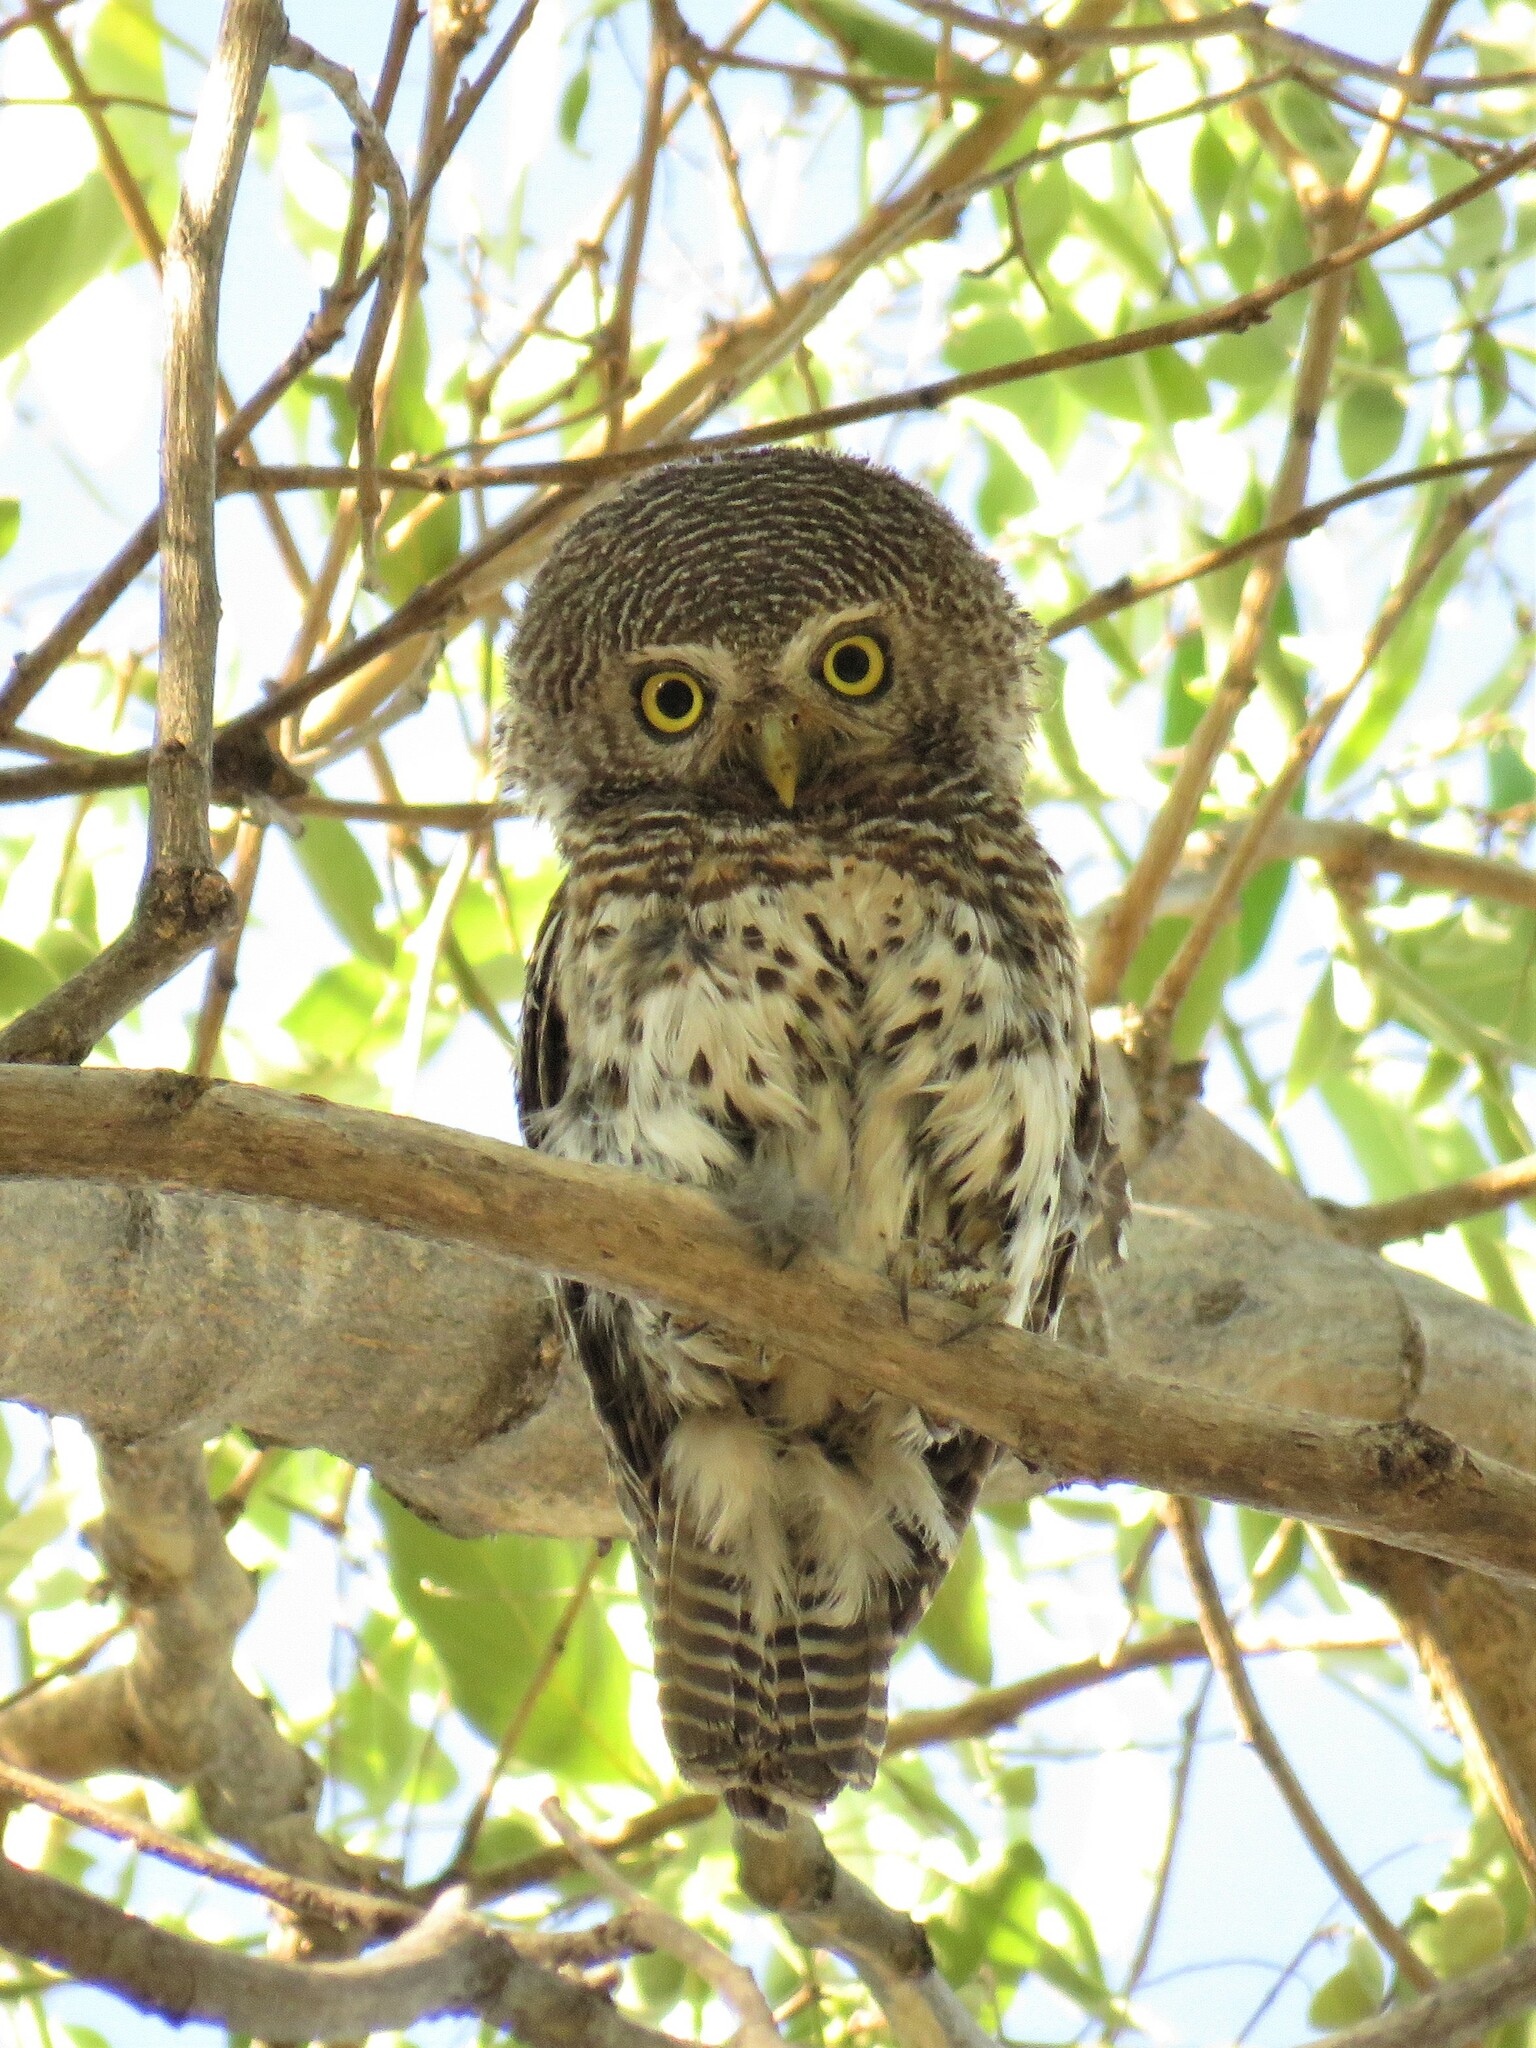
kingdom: Animalia
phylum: Chordata
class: Aves
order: Strigiformes
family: Strigidae
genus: Glaucidium
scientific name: Glaucidium capense
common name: African barred owlet
